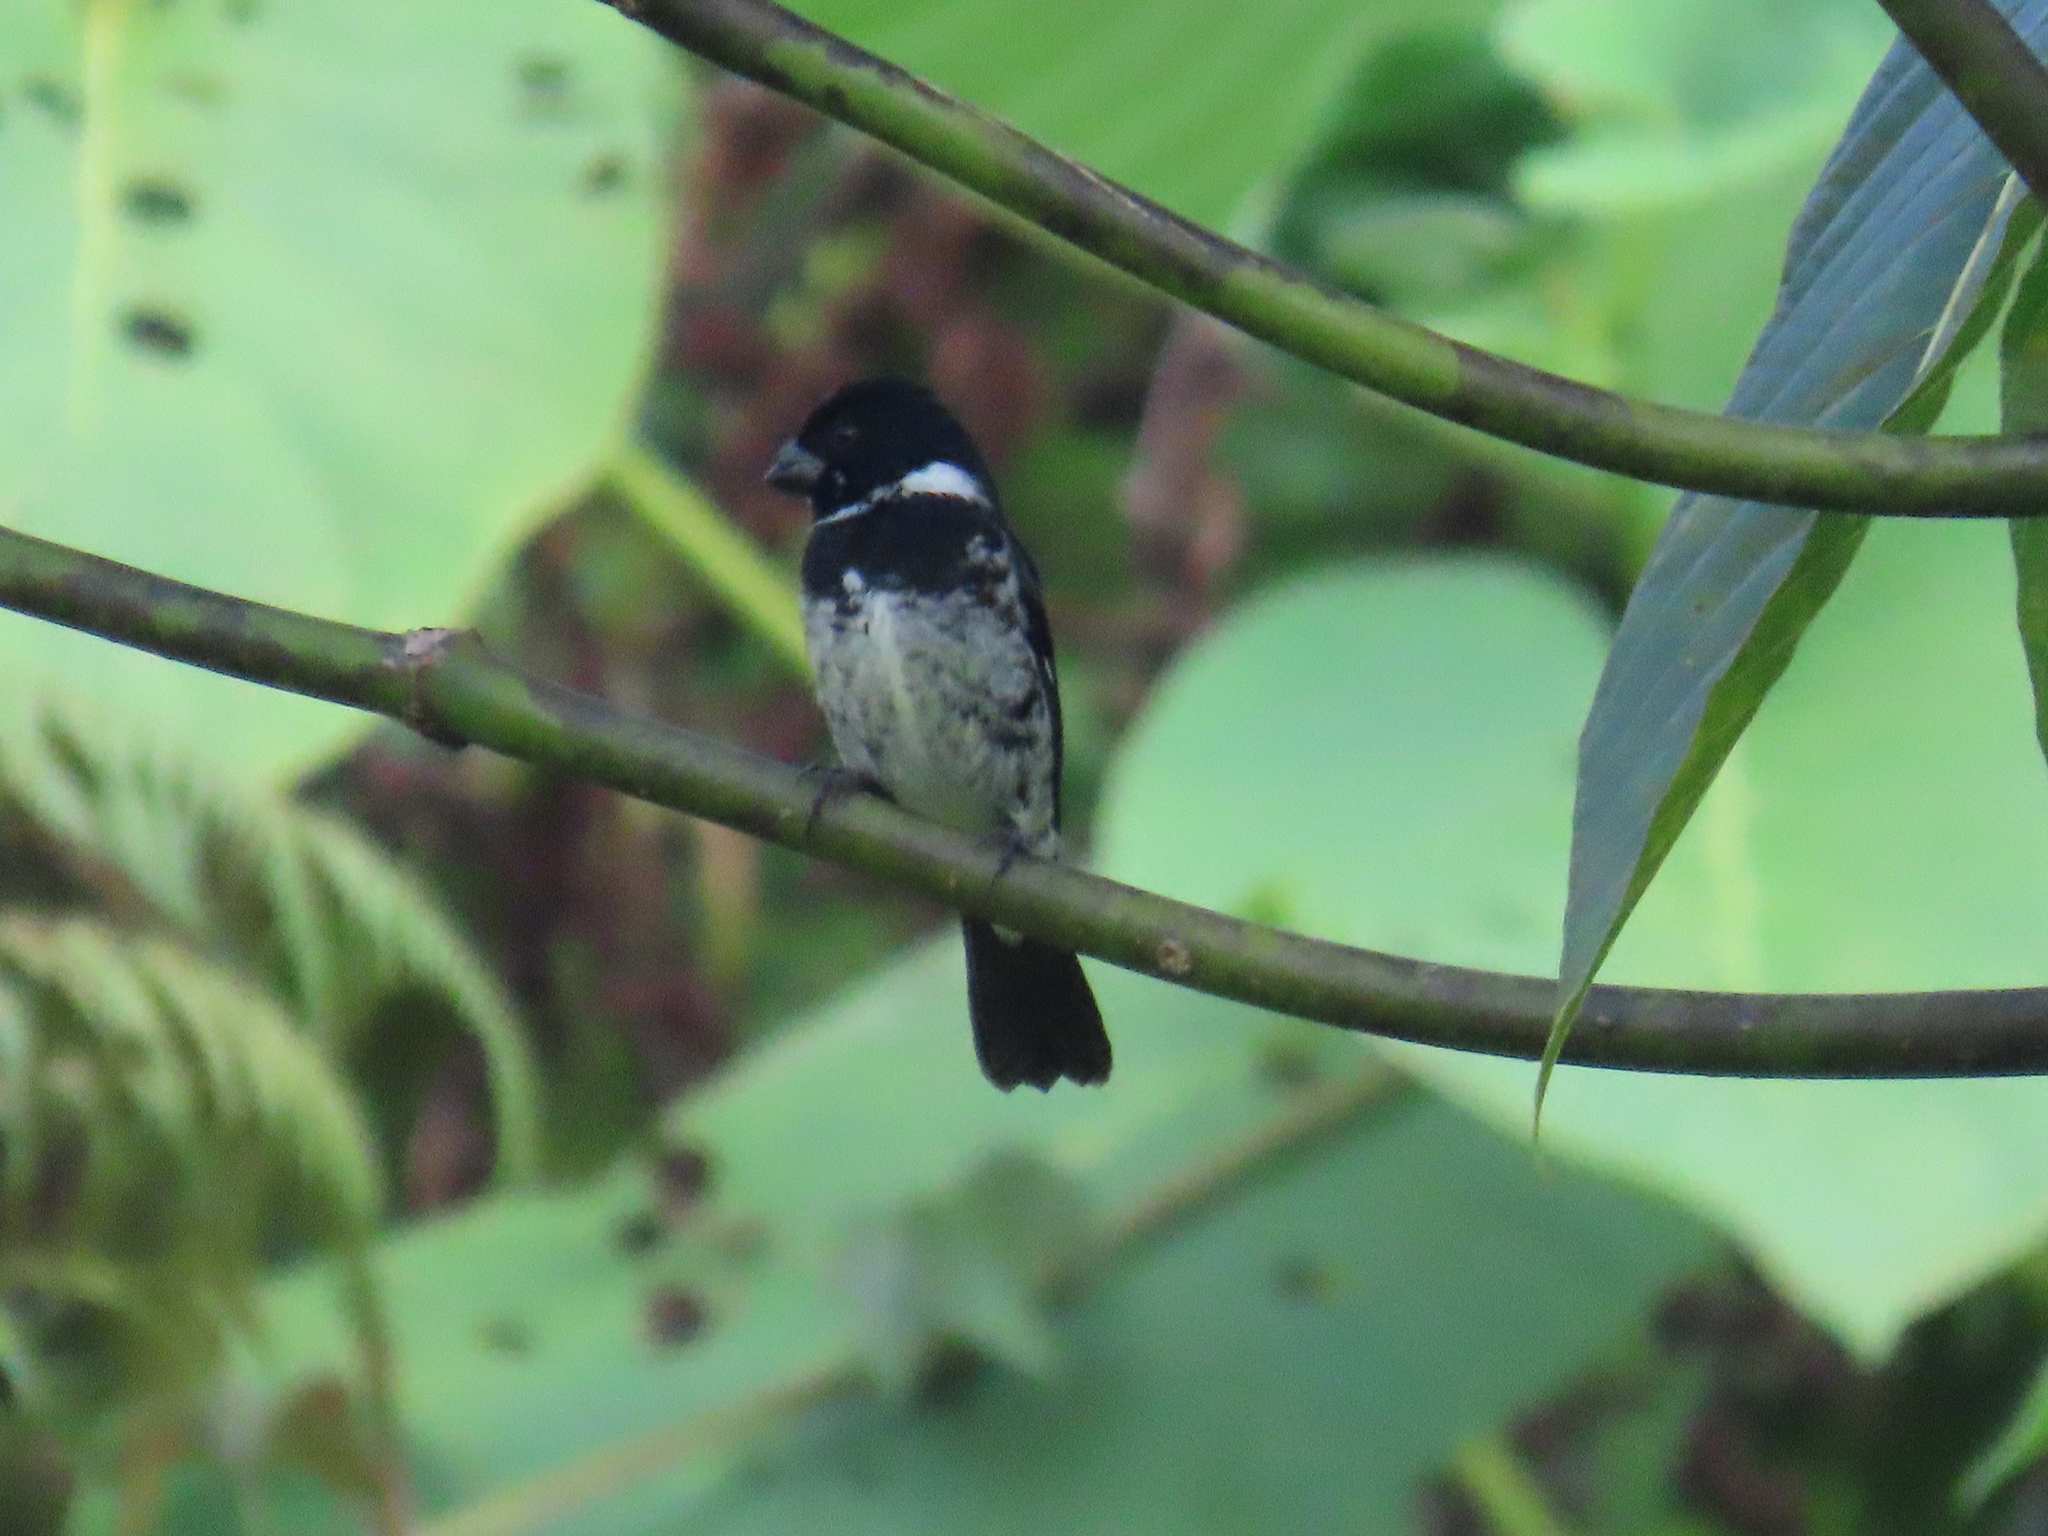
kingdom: Animalia
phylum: Chordata
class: Aves
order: Passeriformes
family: Thraupidae
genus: Sporophila
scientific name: Sporophila corvina
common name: Variable seedeater
